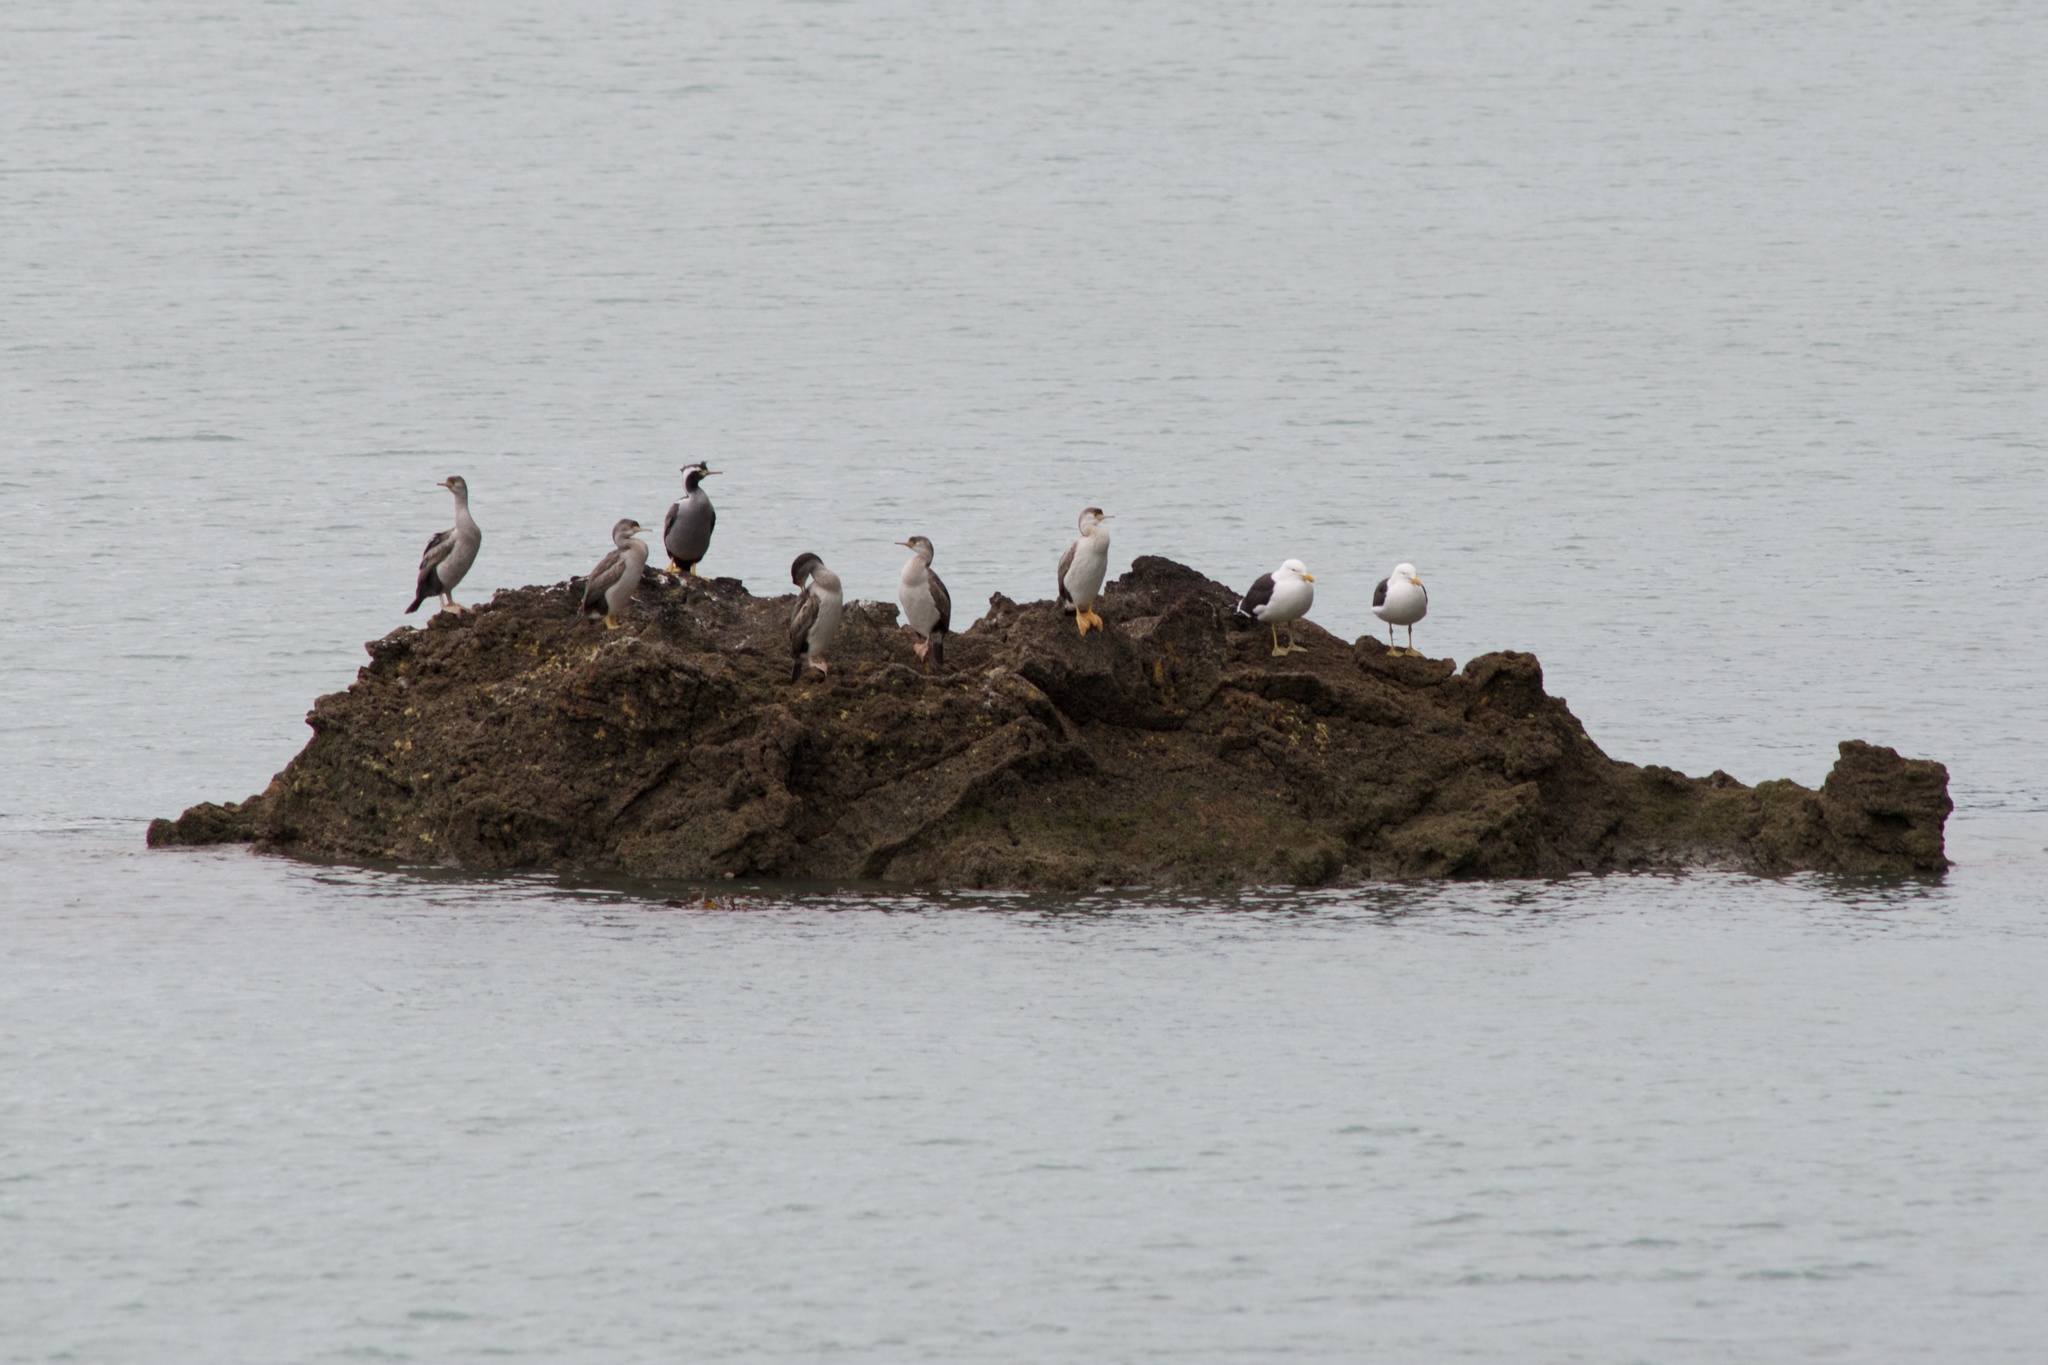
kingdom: Animalia
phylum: Chordata
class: Aves
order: Suliformes
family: Phalacrocoracidae
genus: Phalacrocorax
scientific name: Phalacrocorax punctatus
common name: Spotted shag
